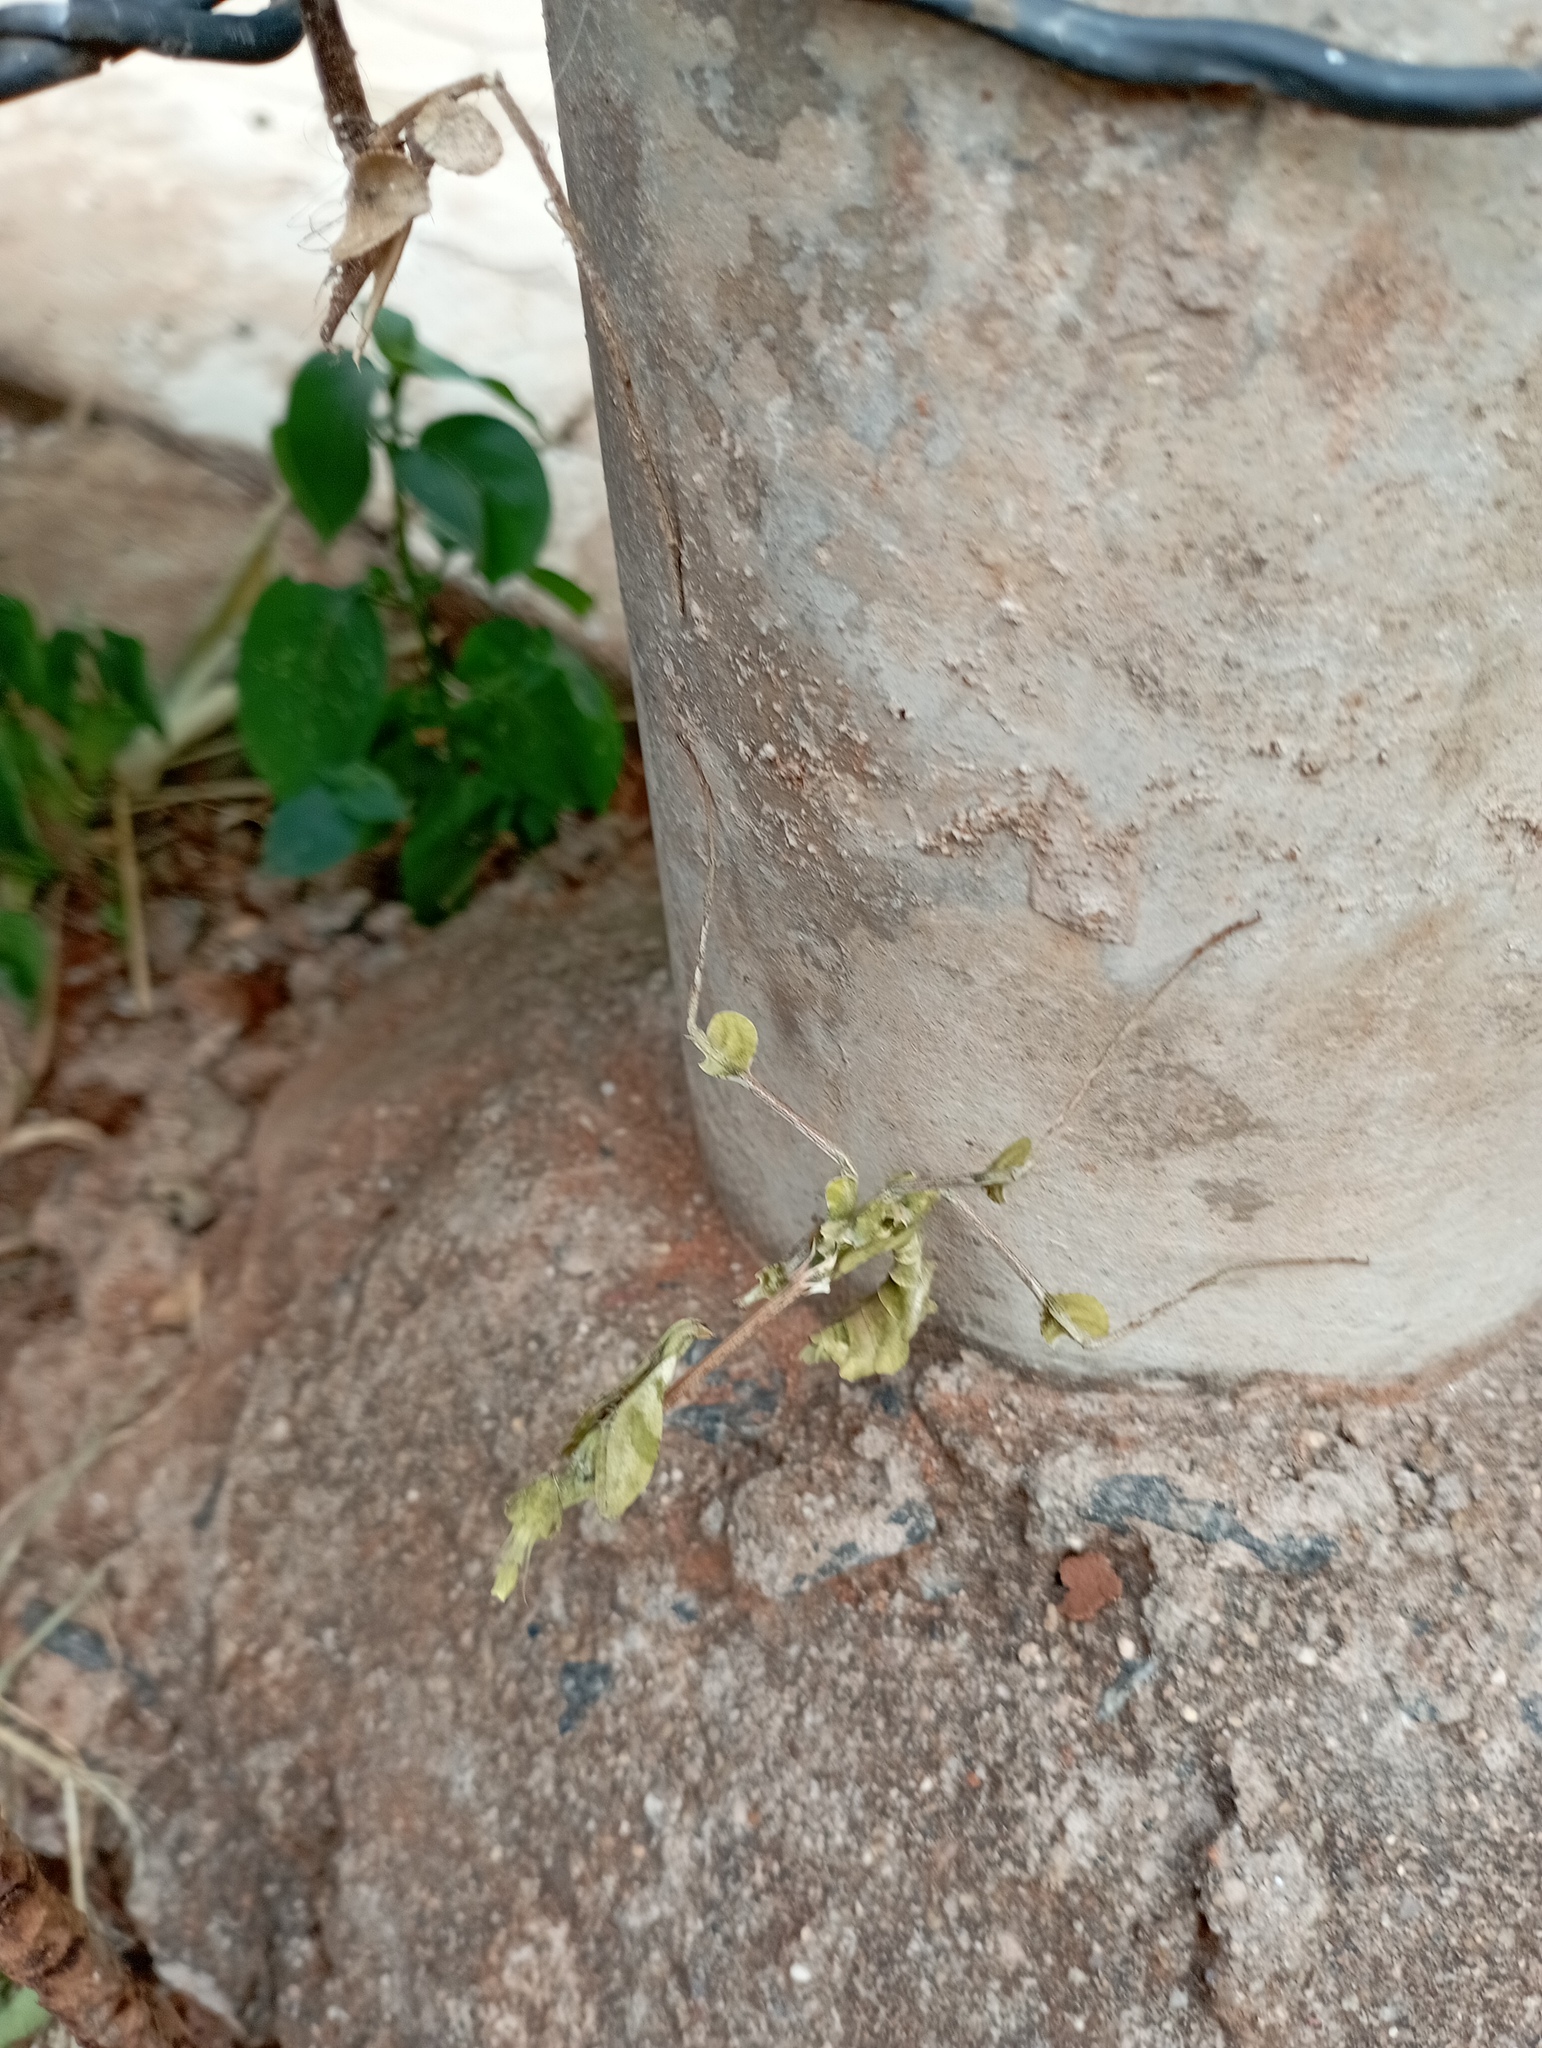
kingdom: Animalia
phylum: Arthropoda
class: Insecta
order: Mantodea
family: Empusidae
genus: Gongylus
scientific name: Gongylus gongylodes
